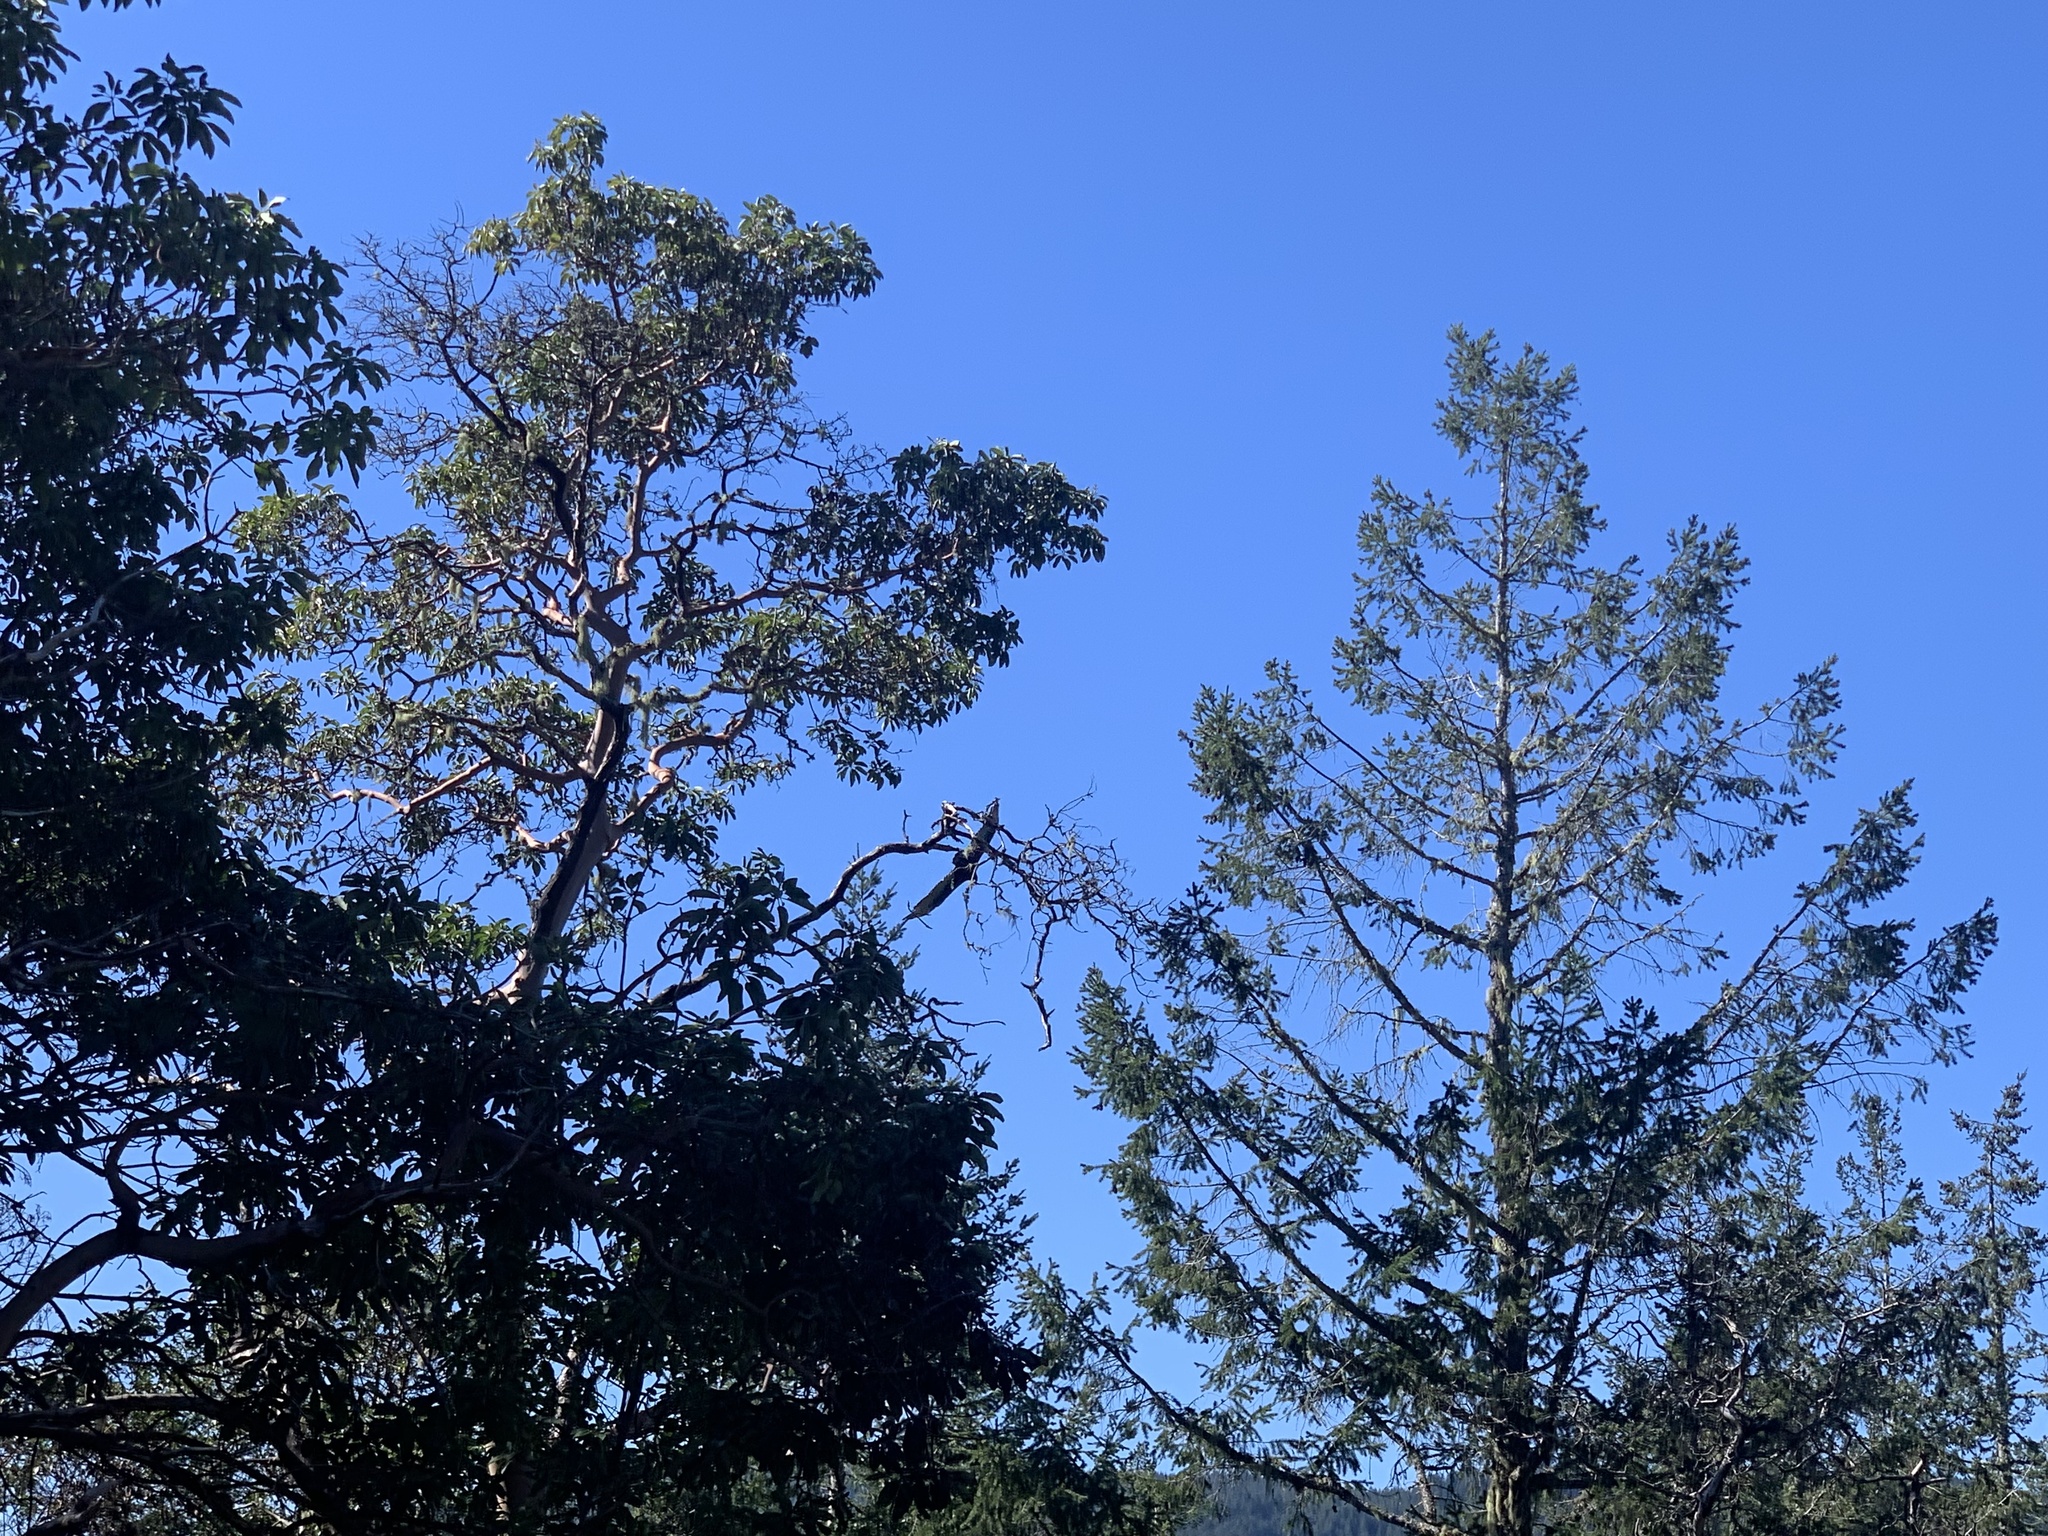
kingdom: Animalia
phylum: Chordata
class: Aves
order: Accipitriformes
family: Cathartidae
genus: Cathartes
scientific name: Cathartes aura
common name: Turkey vulture
